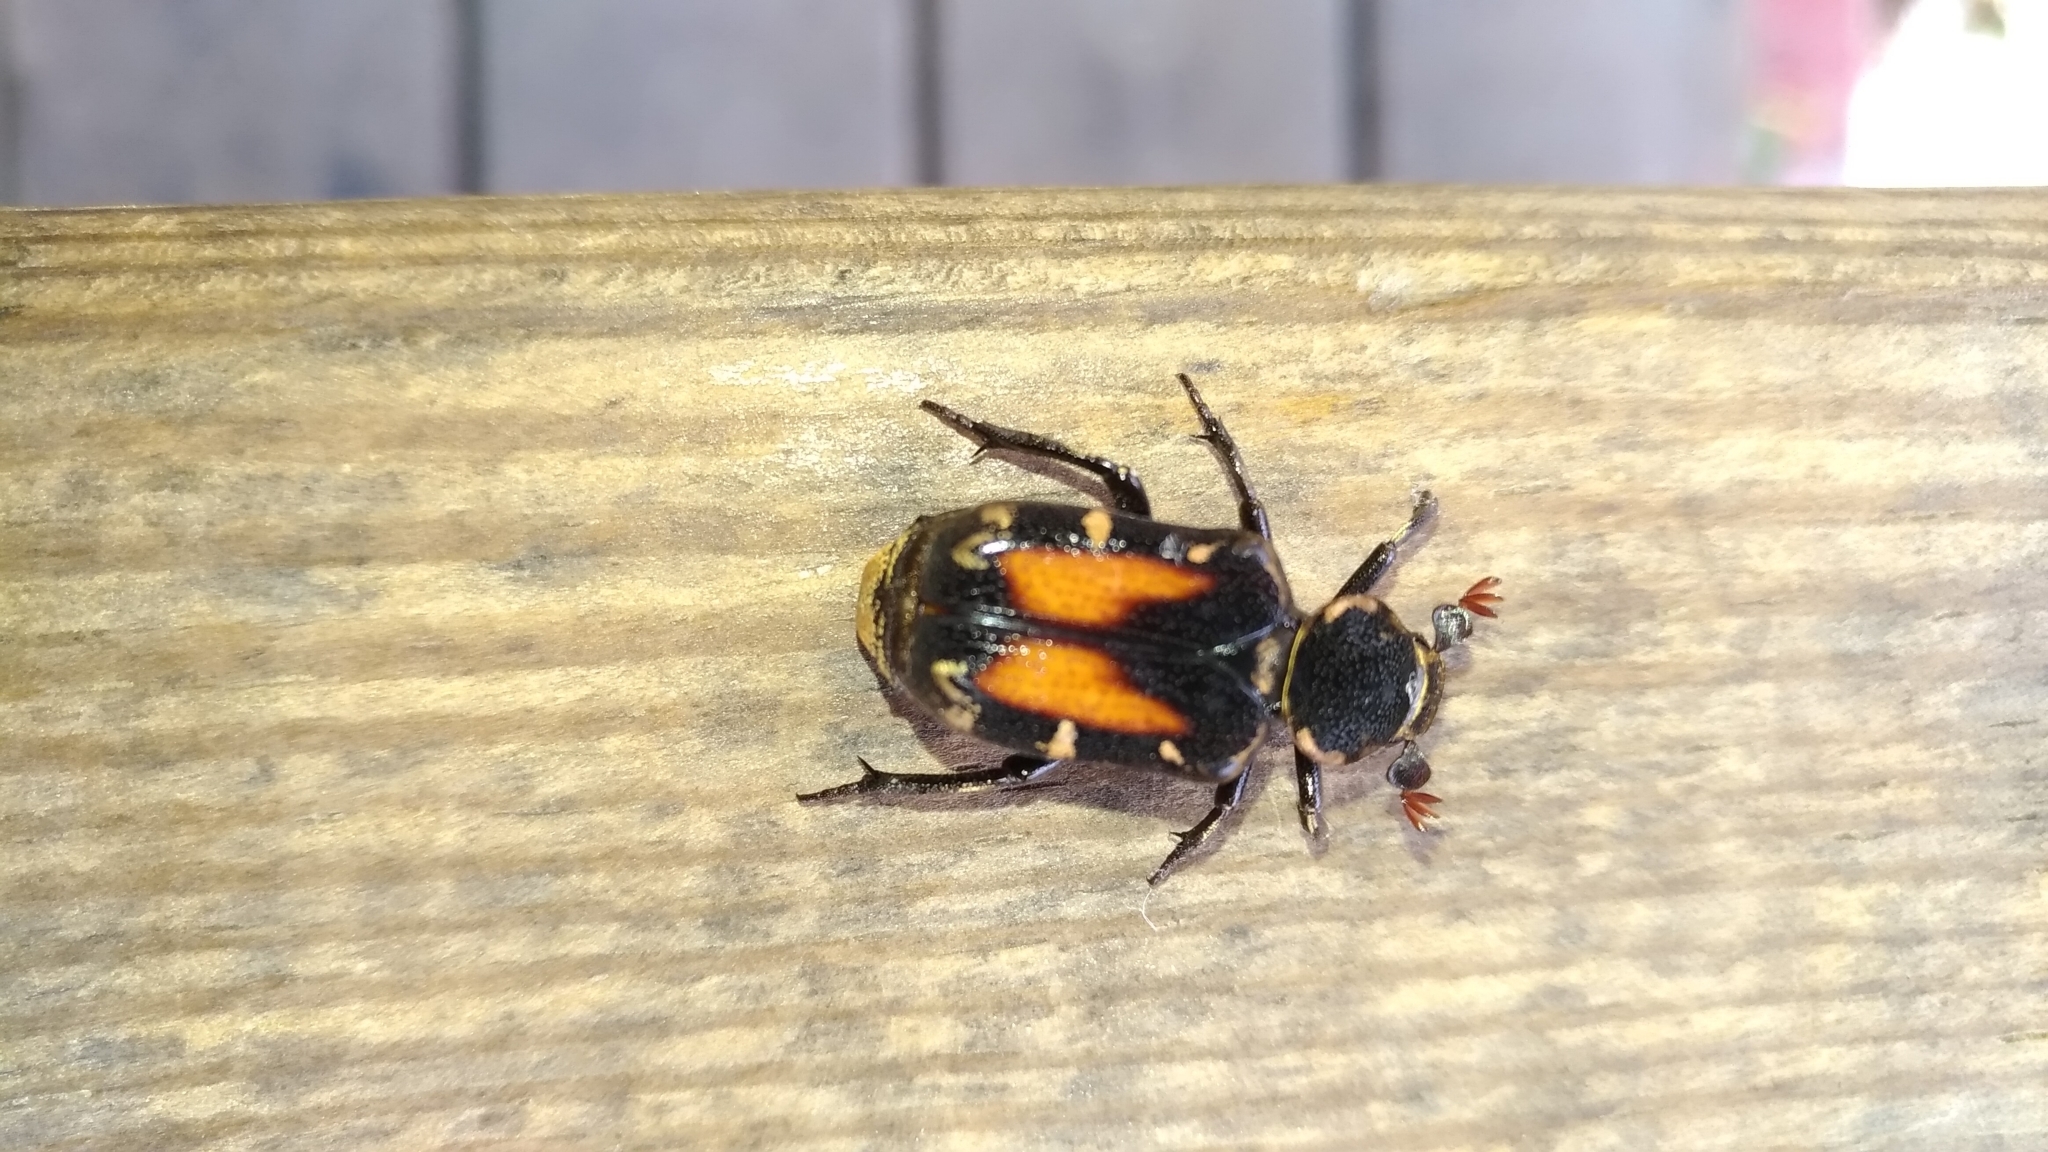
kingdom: Animalia
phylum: Arthropoda
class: Insecta
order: Coleoptera
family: Scarabaeidae
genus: Clinterocera
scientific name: Clinterocera nigra
